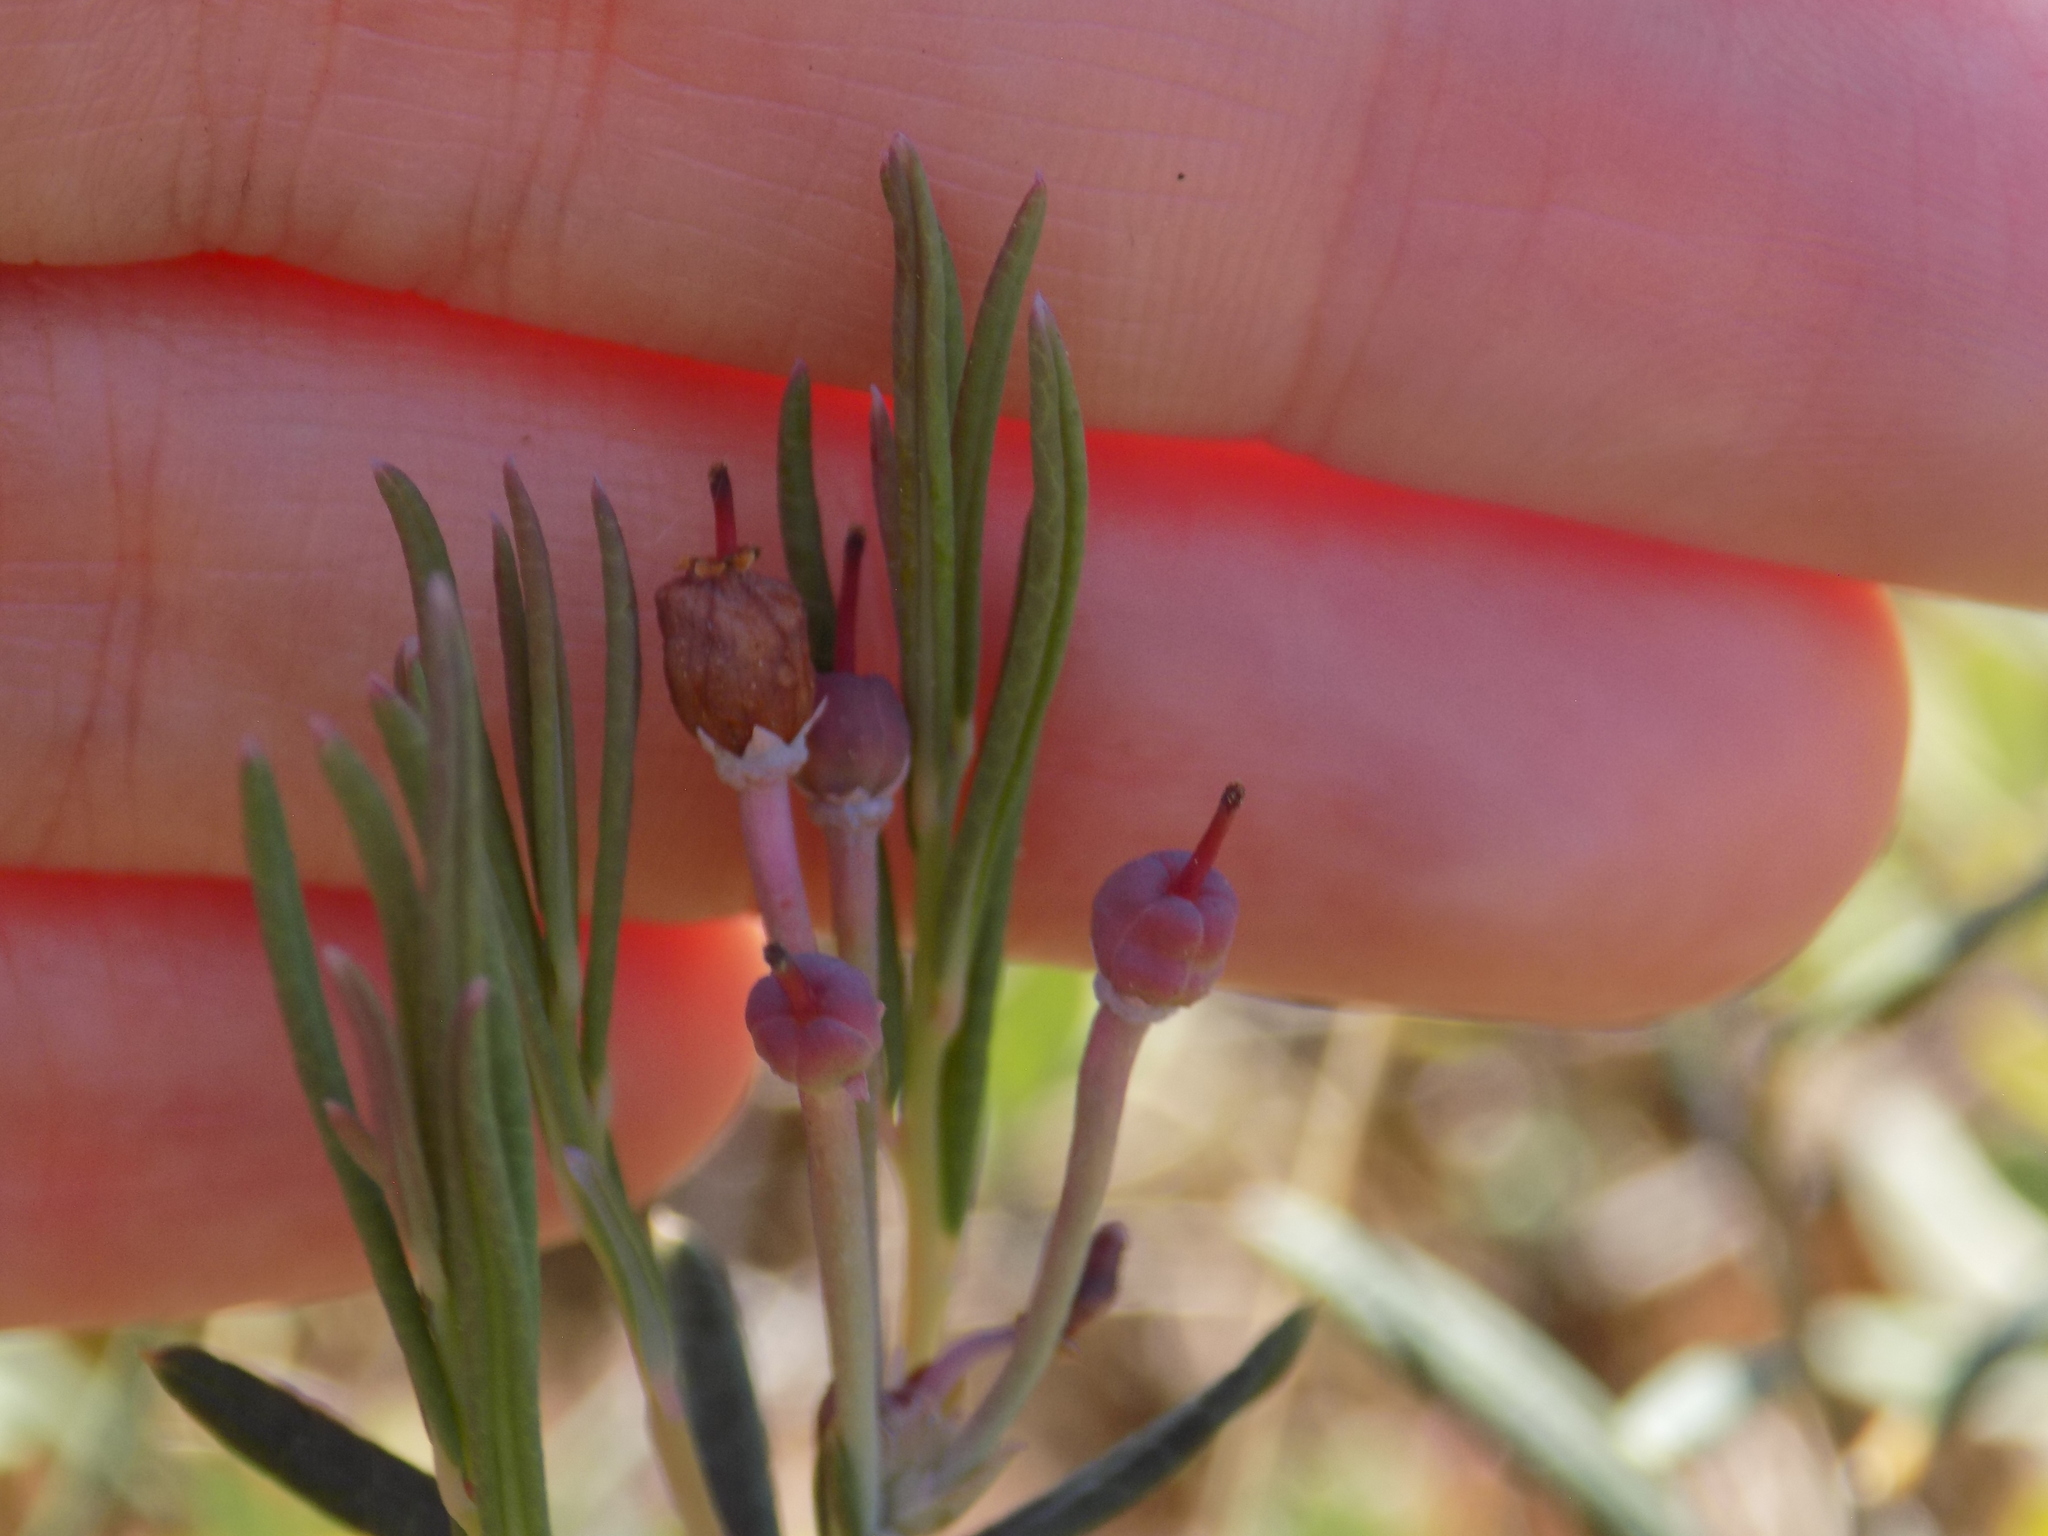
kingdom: Plantae
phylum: Tracheophyta
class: Magnoliopsida
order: Ericales
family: Ericaceae
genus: Andromeda
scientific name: Andromeda polifolia
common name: Bog-rosemary
